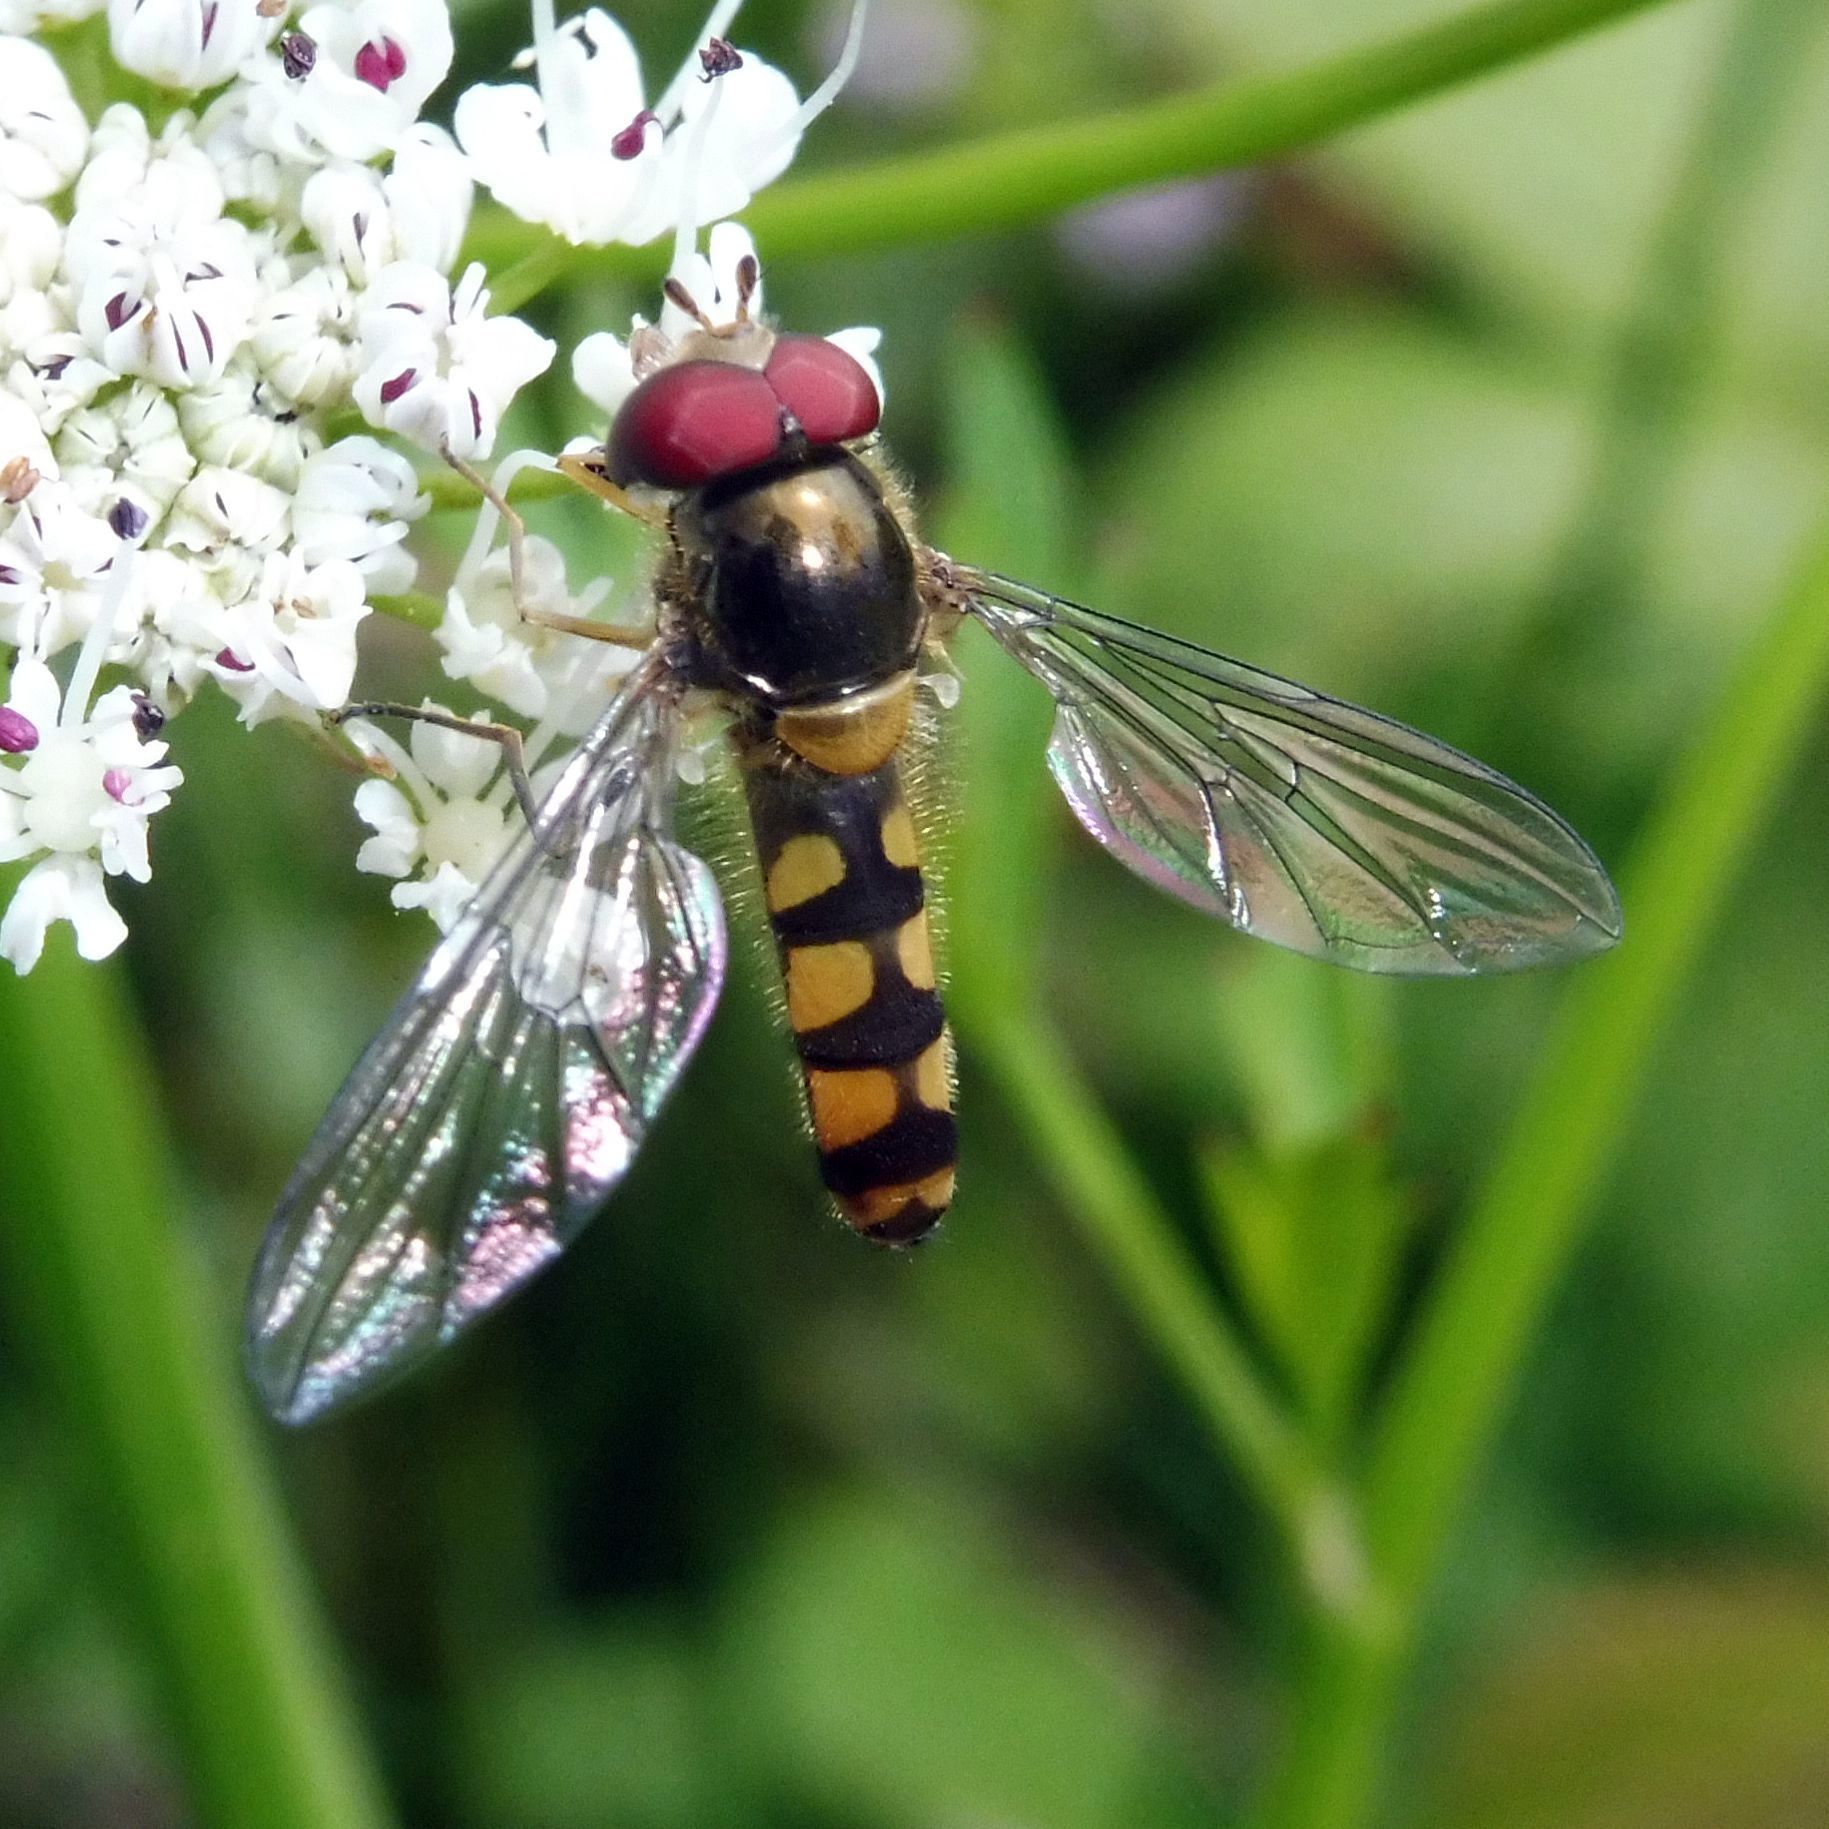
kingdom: Animalia
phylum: Arthropoda
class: Insecta
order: Diptera
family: Syrphidae
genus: Meliscaeva
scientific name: Meliscaeva auricollis
